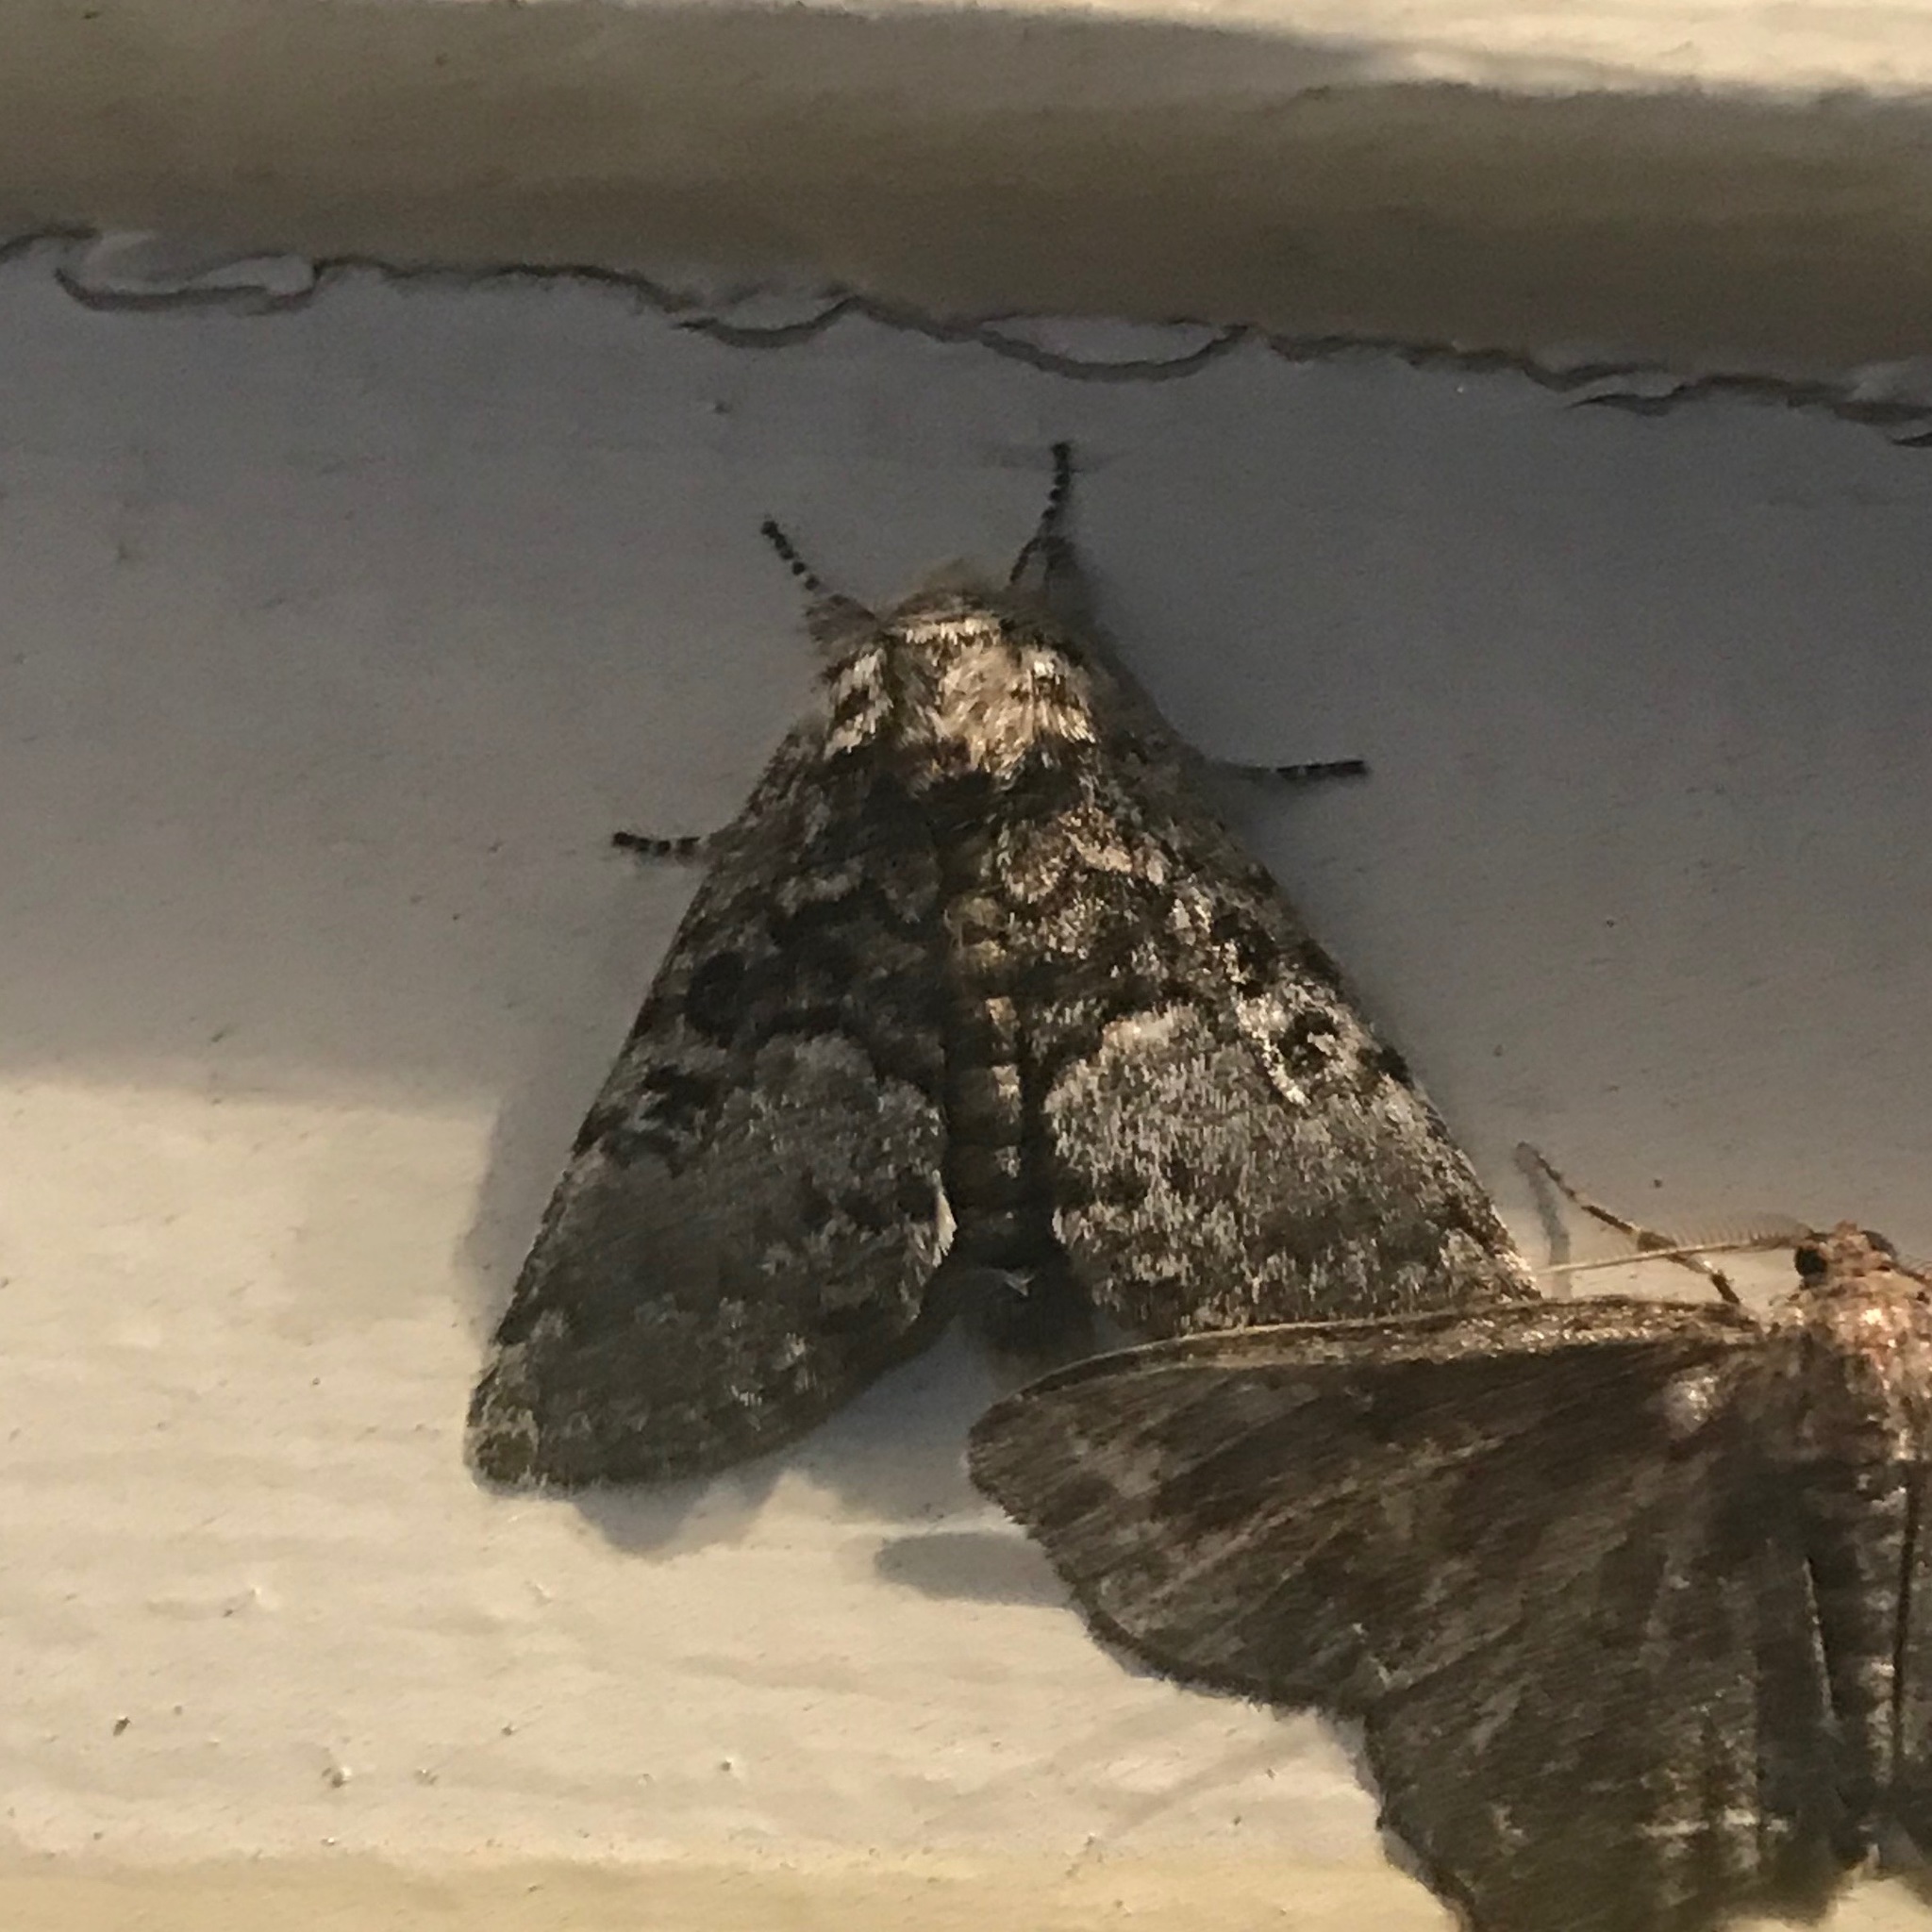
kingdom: Animalia
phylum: Arthropoda
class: Insecta
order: Lepidoptera
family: Noctuidae
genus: Colocasia
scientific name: Colocasia propinquilinea
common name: Close-banded demas
